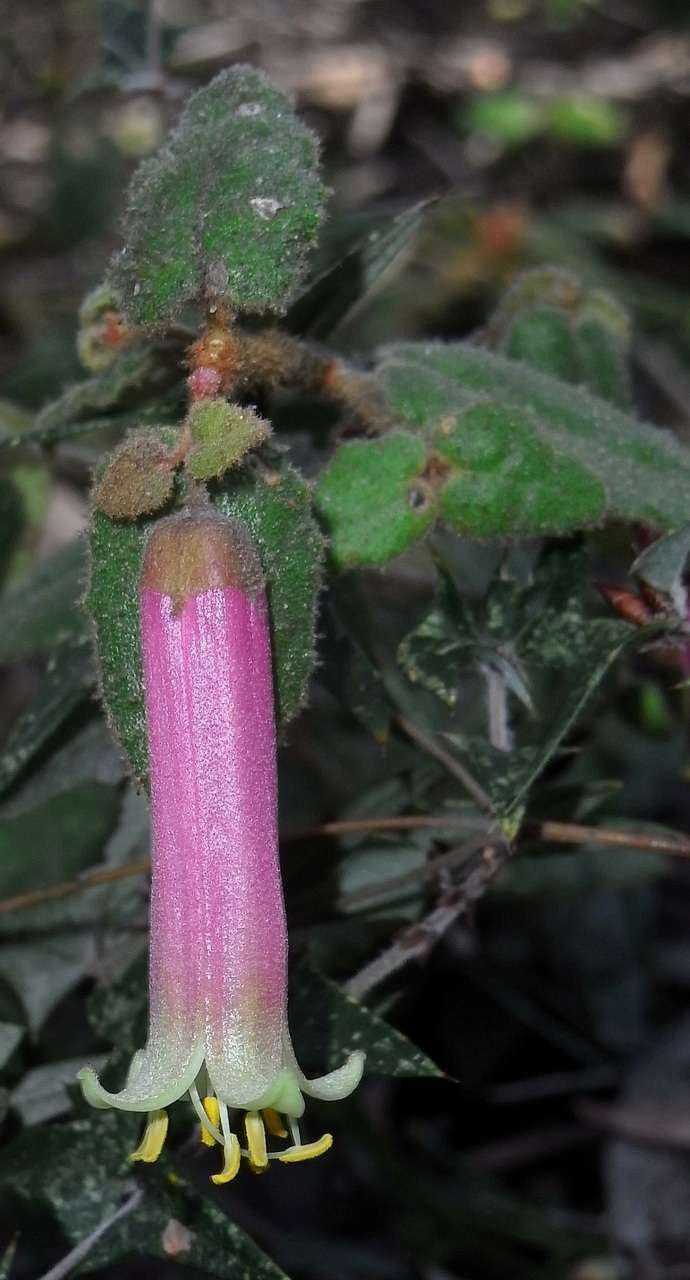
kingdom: Plantae
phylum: Tracheophyta
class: Magnoliopsida
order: Sapindales
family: Rutaceae
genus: Correa
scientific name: Correa
